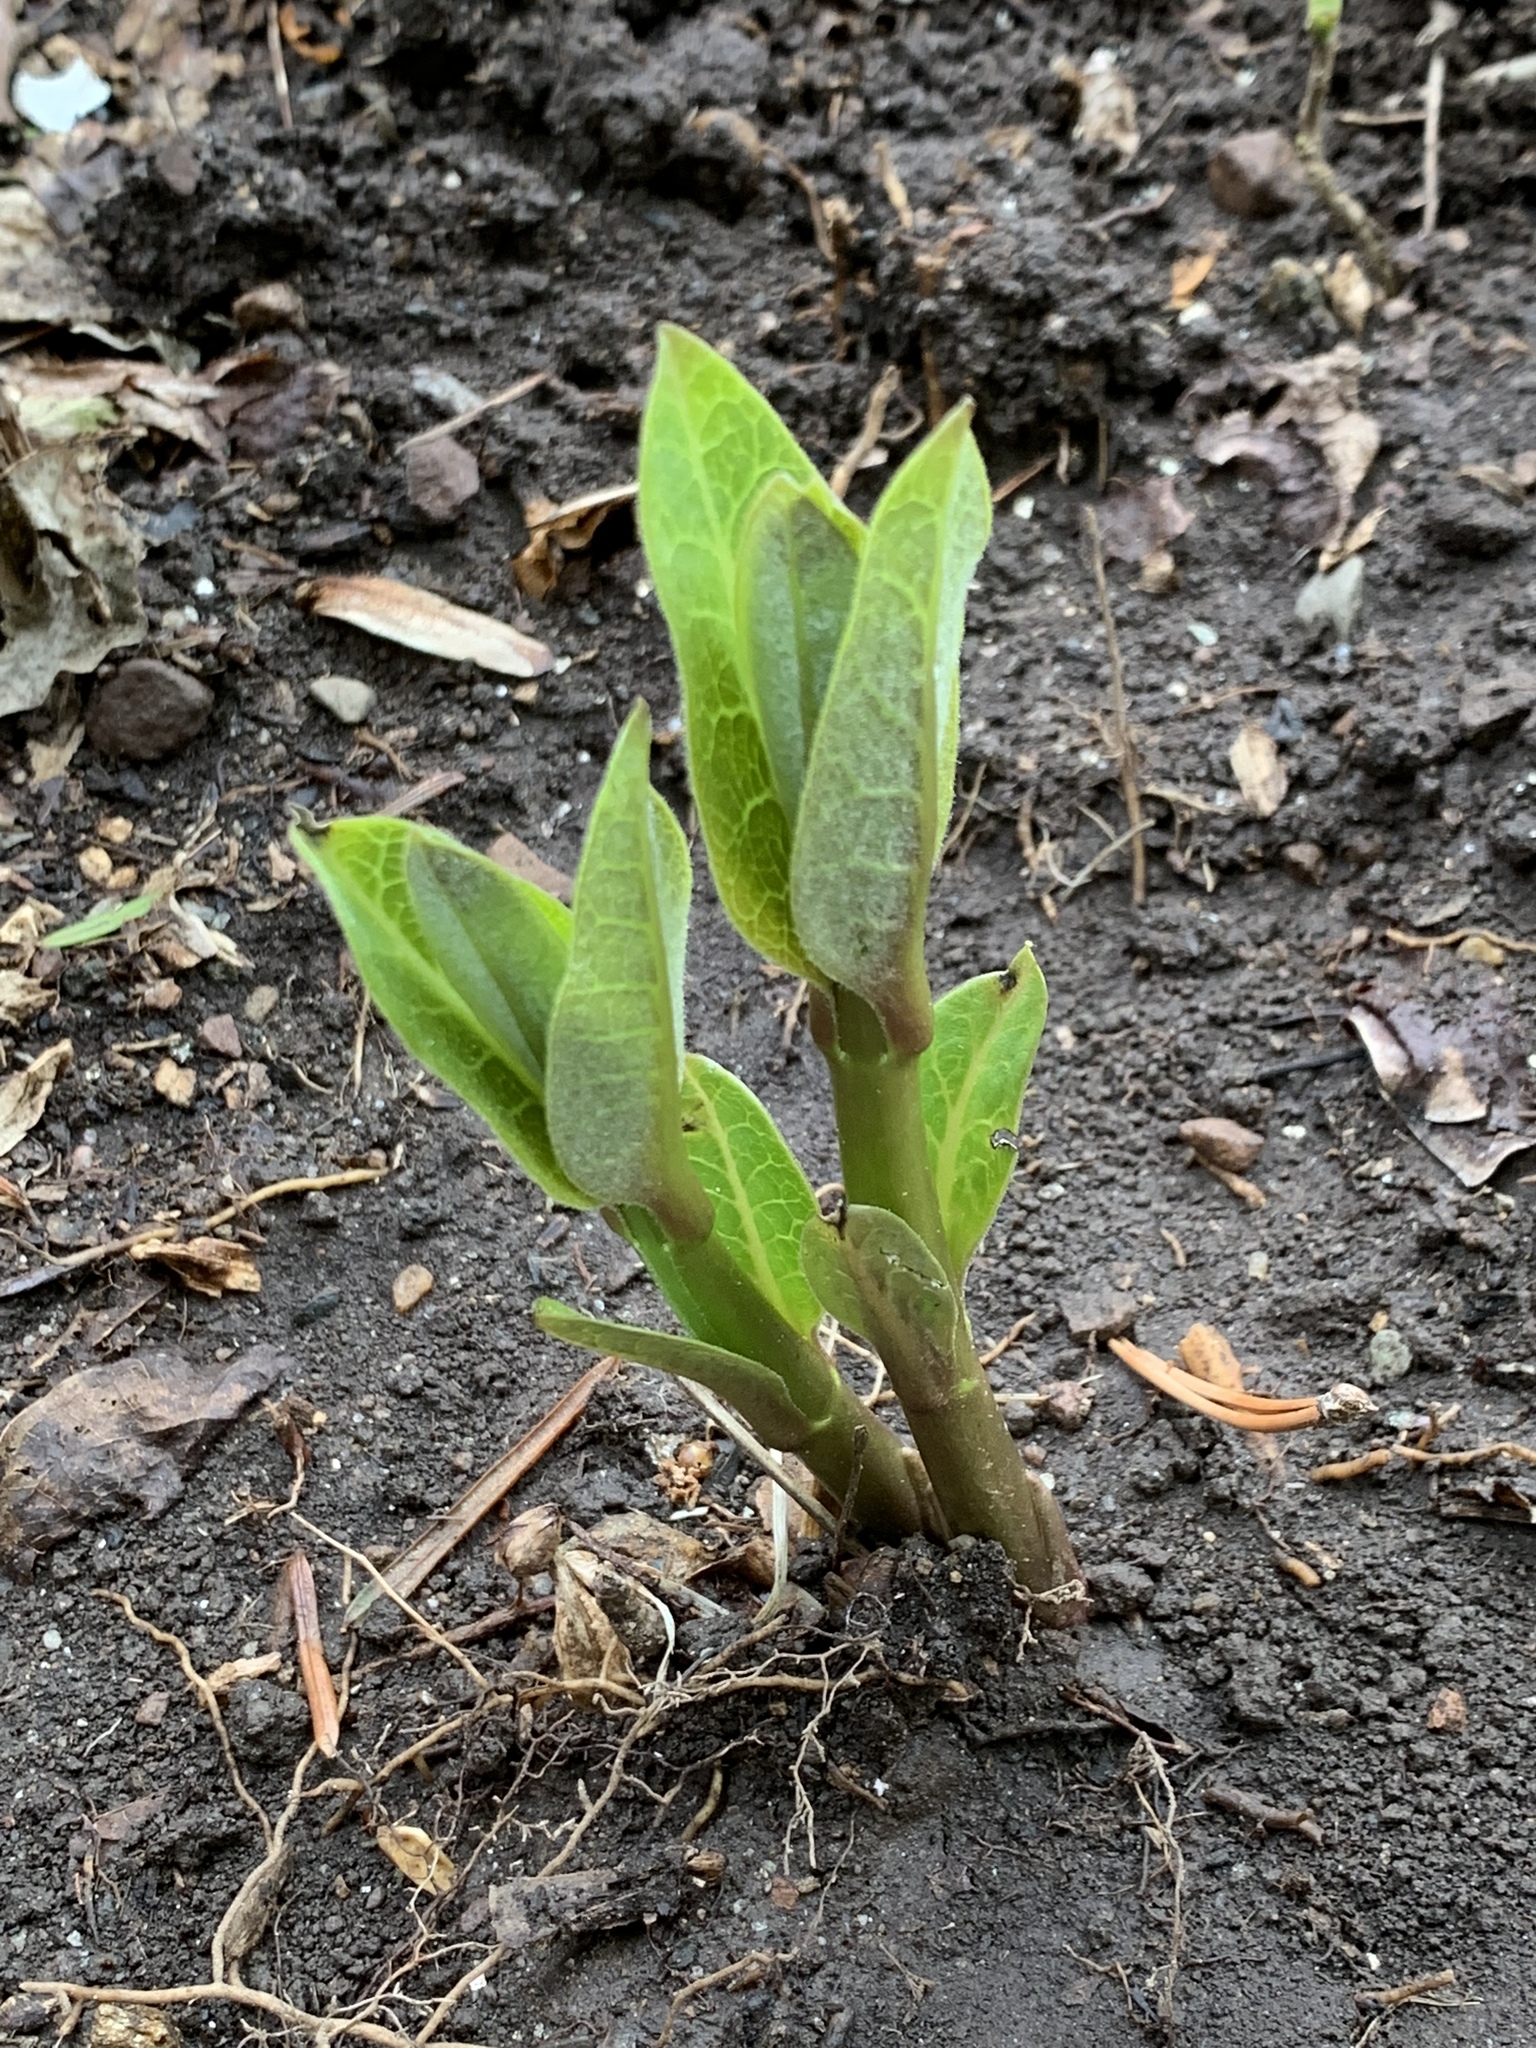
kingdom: Plantae
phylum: Tracheophyta
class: Magnoliopsida
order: Gentianales
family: Apocynaceae
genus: Asclepias
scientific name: Asclepias syriaca
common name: Common milkweed
